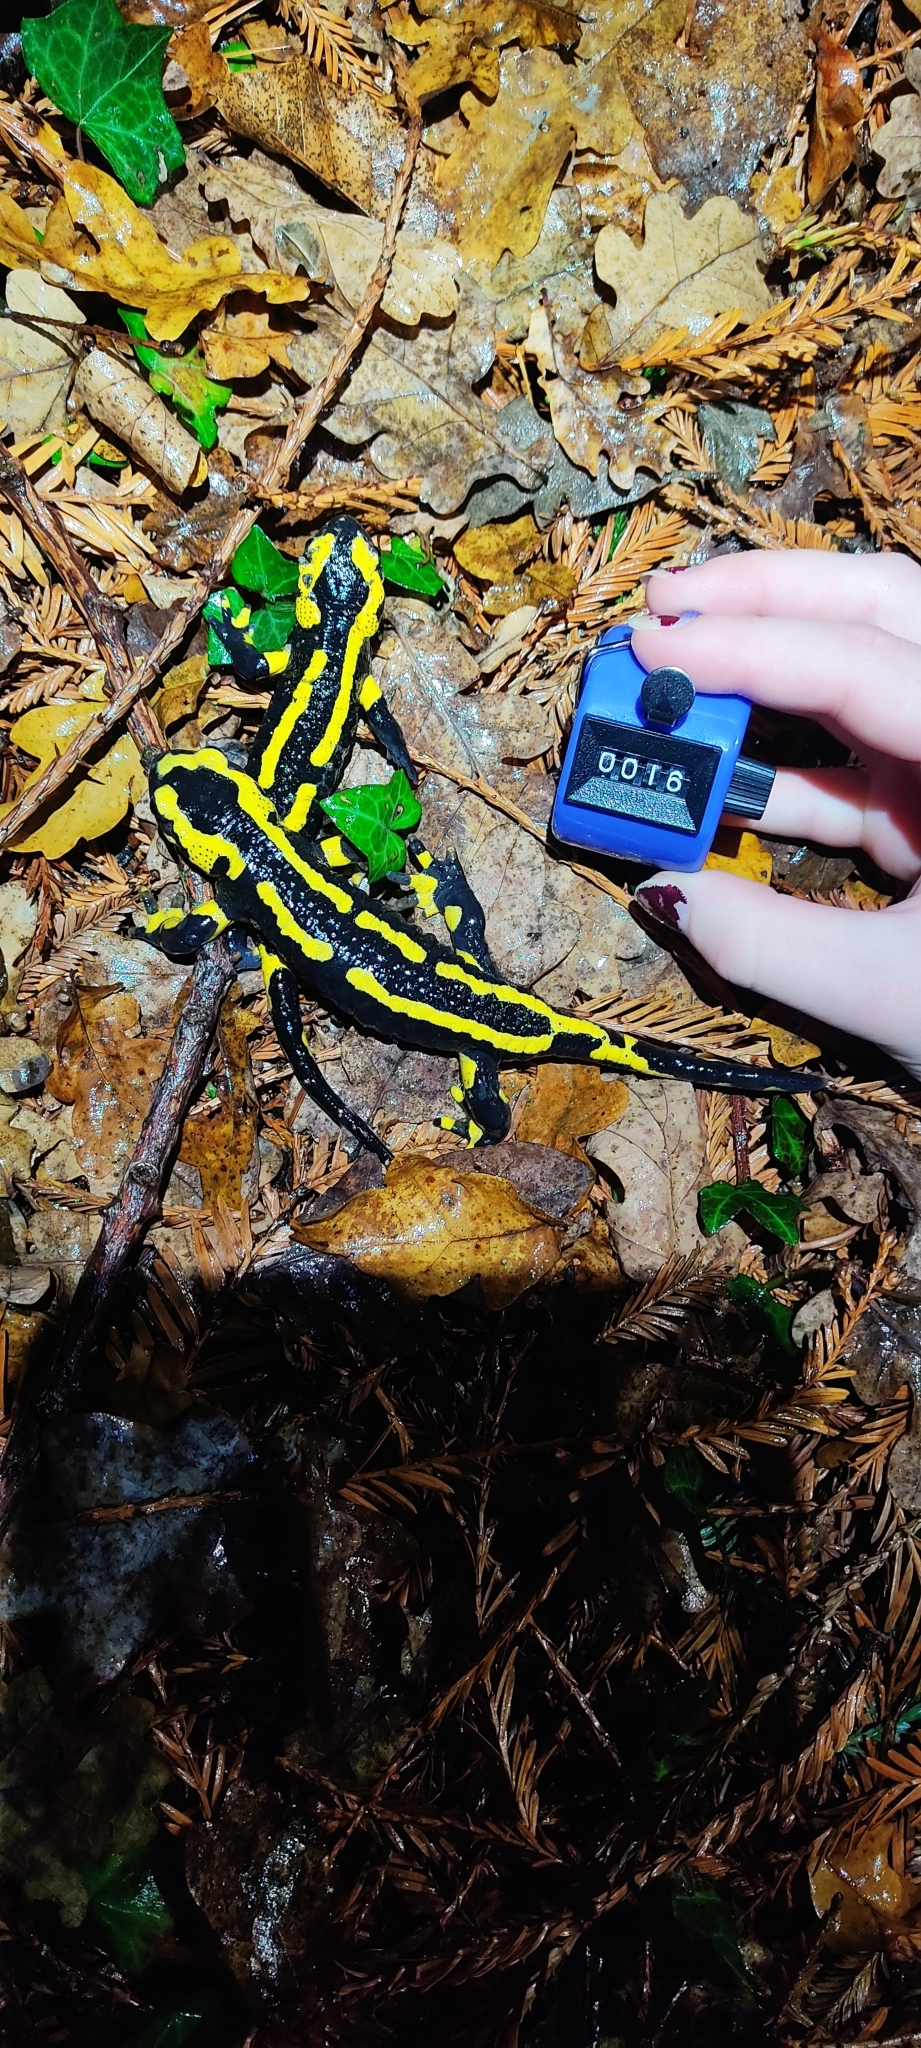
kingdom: Animalia
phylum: Chordata
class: Amphibia
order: Caudata
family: Salamandridae
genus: Salamandra
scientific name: Salamandra salamandra
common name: Fire salamander
